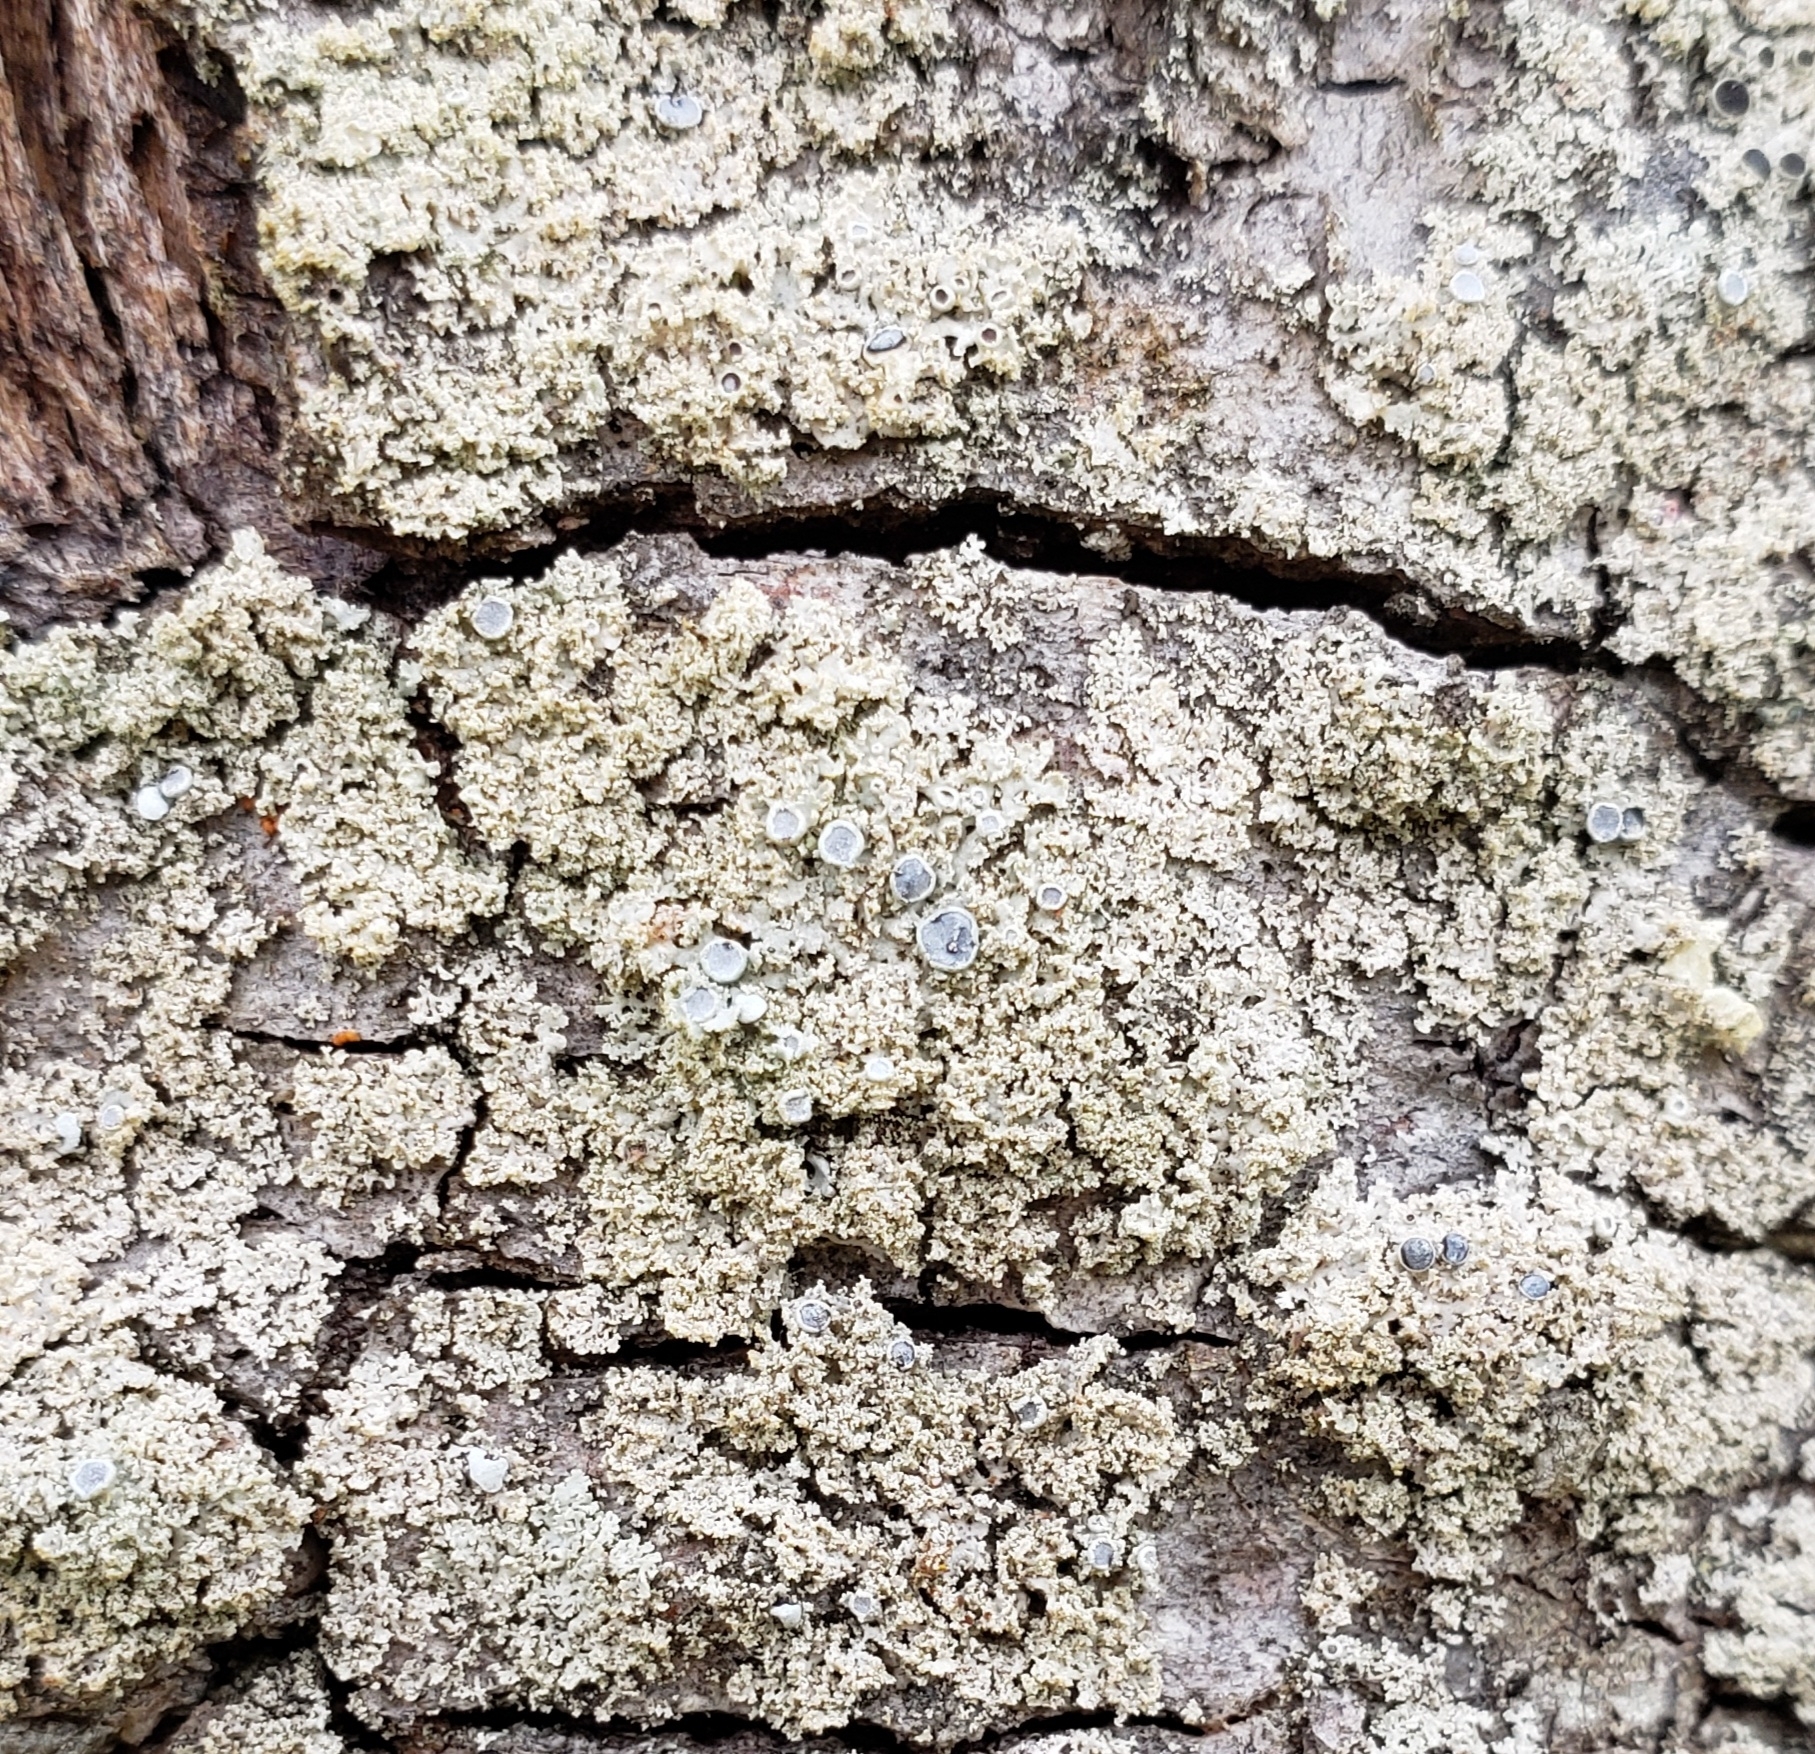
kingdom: Fungi
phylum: Ascomycota
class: Lecanoromycetes
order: Caliciales
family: Physciaceae
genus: Physcia
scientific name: Physcia millegrana
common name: Rosette lichen
